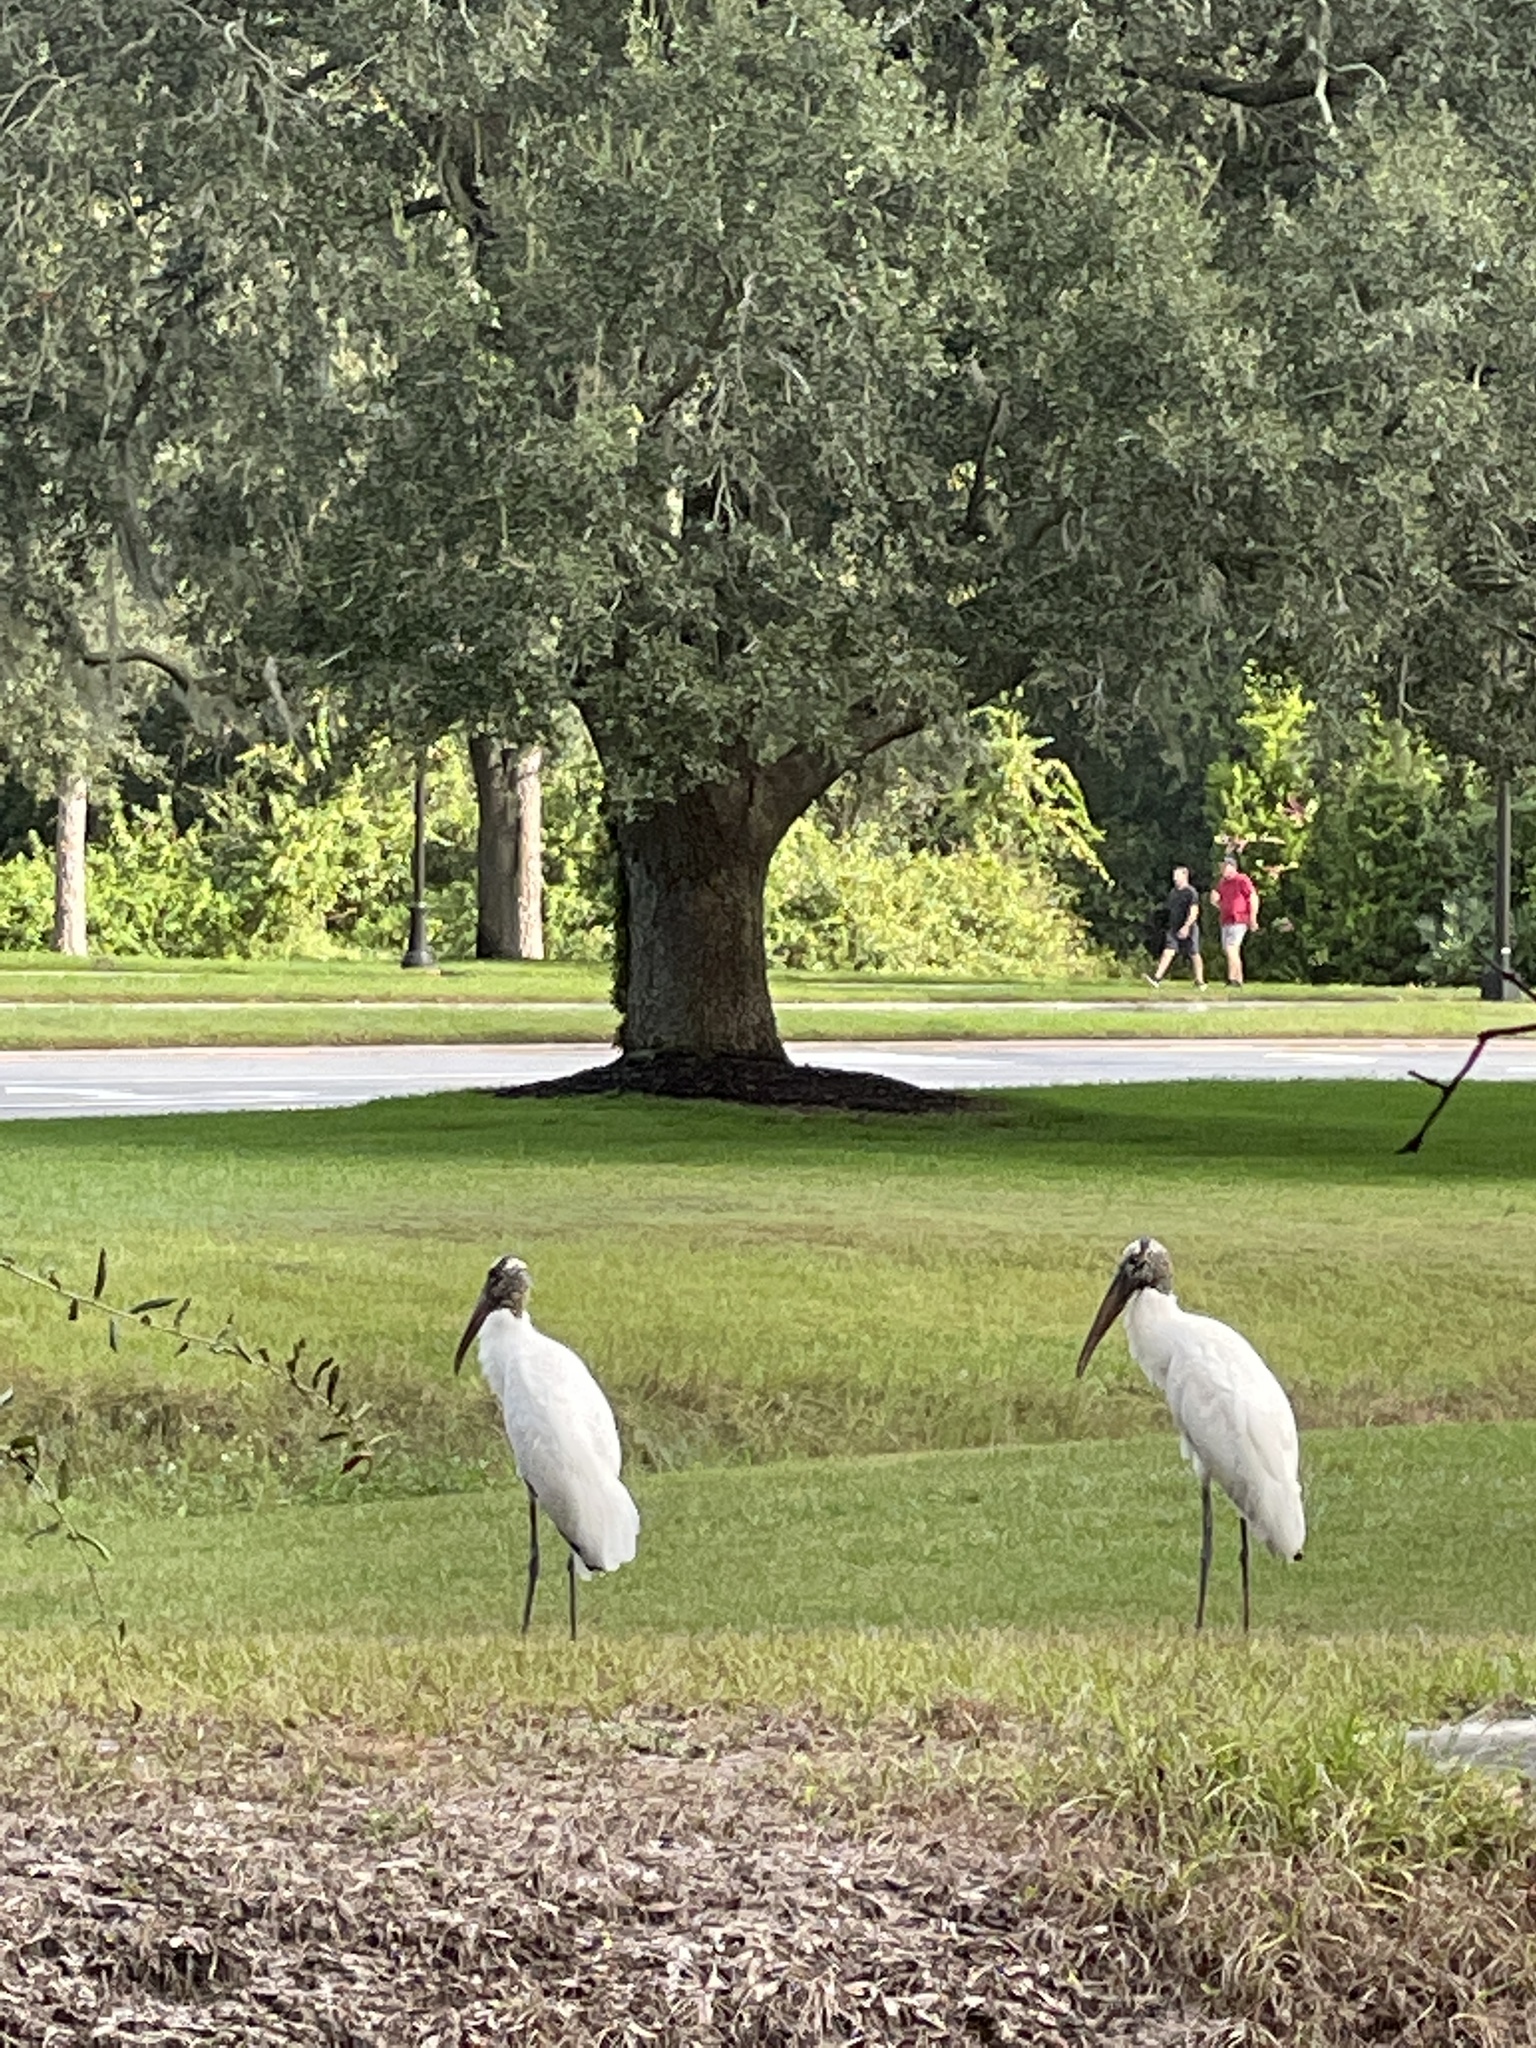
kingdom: Animalia
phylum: Chordata
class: Aves
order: Ciconiiformes
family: Ciconiidae
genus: Mycteria
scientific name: Mycteria americana
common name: Wood stork
